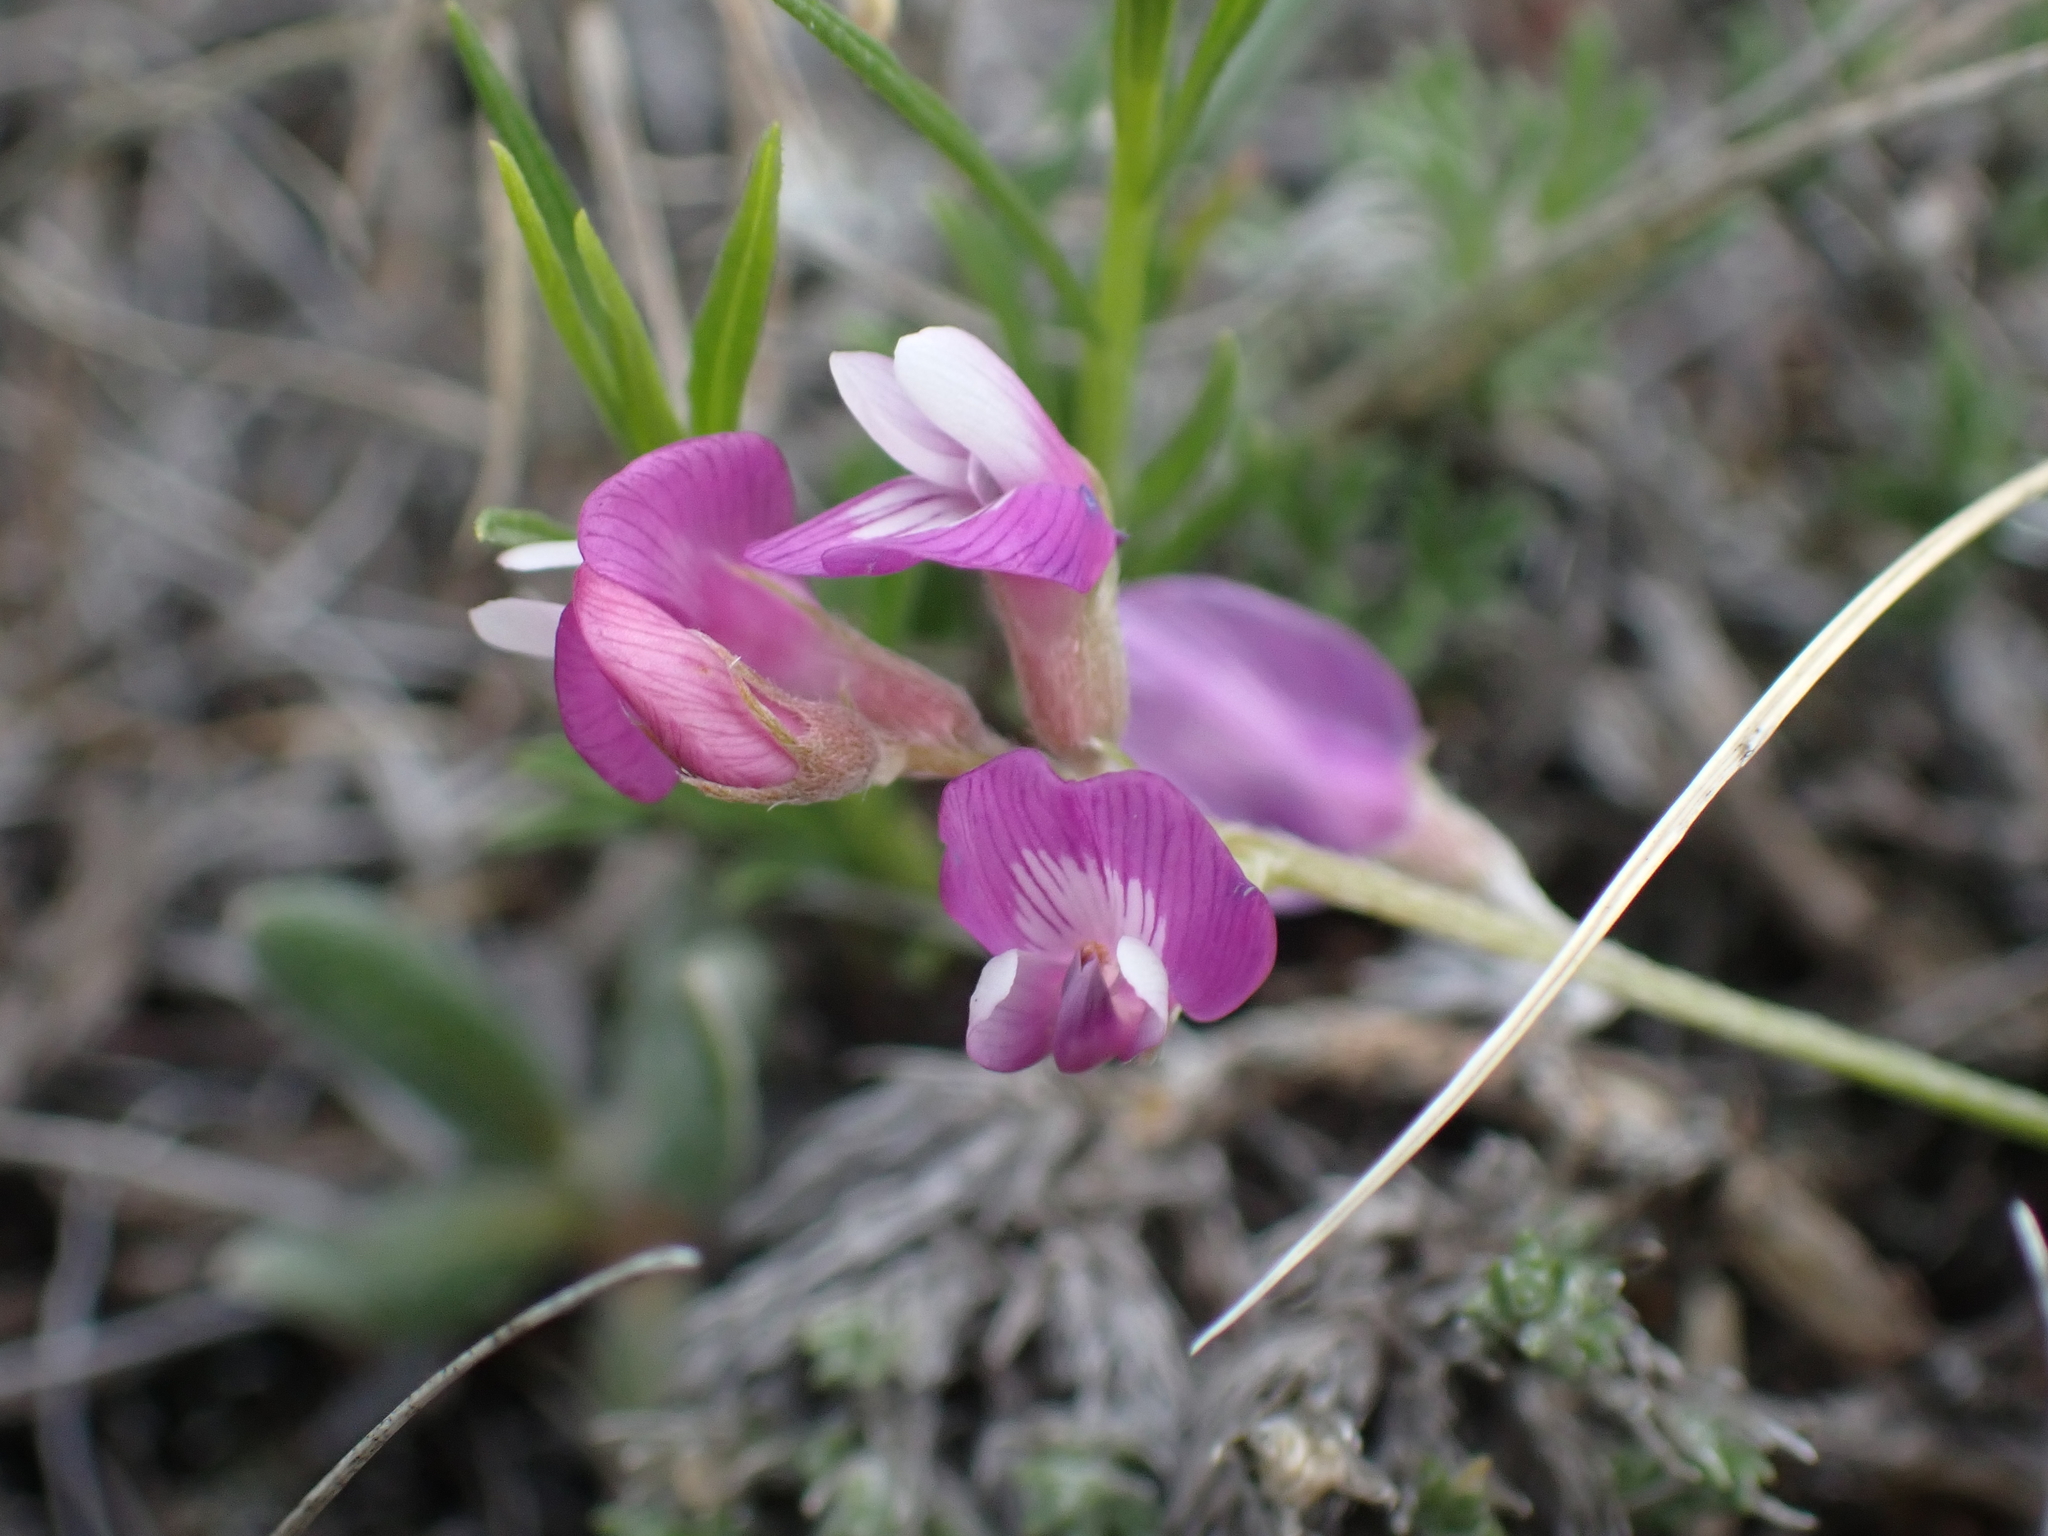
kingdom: Plantae
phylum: Tracheophyta
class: Magnoliopsida
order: Fabales
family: Fabaceae
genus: Astragalus
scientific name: Astragalus spatulatus
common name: Draba milk-vetch
